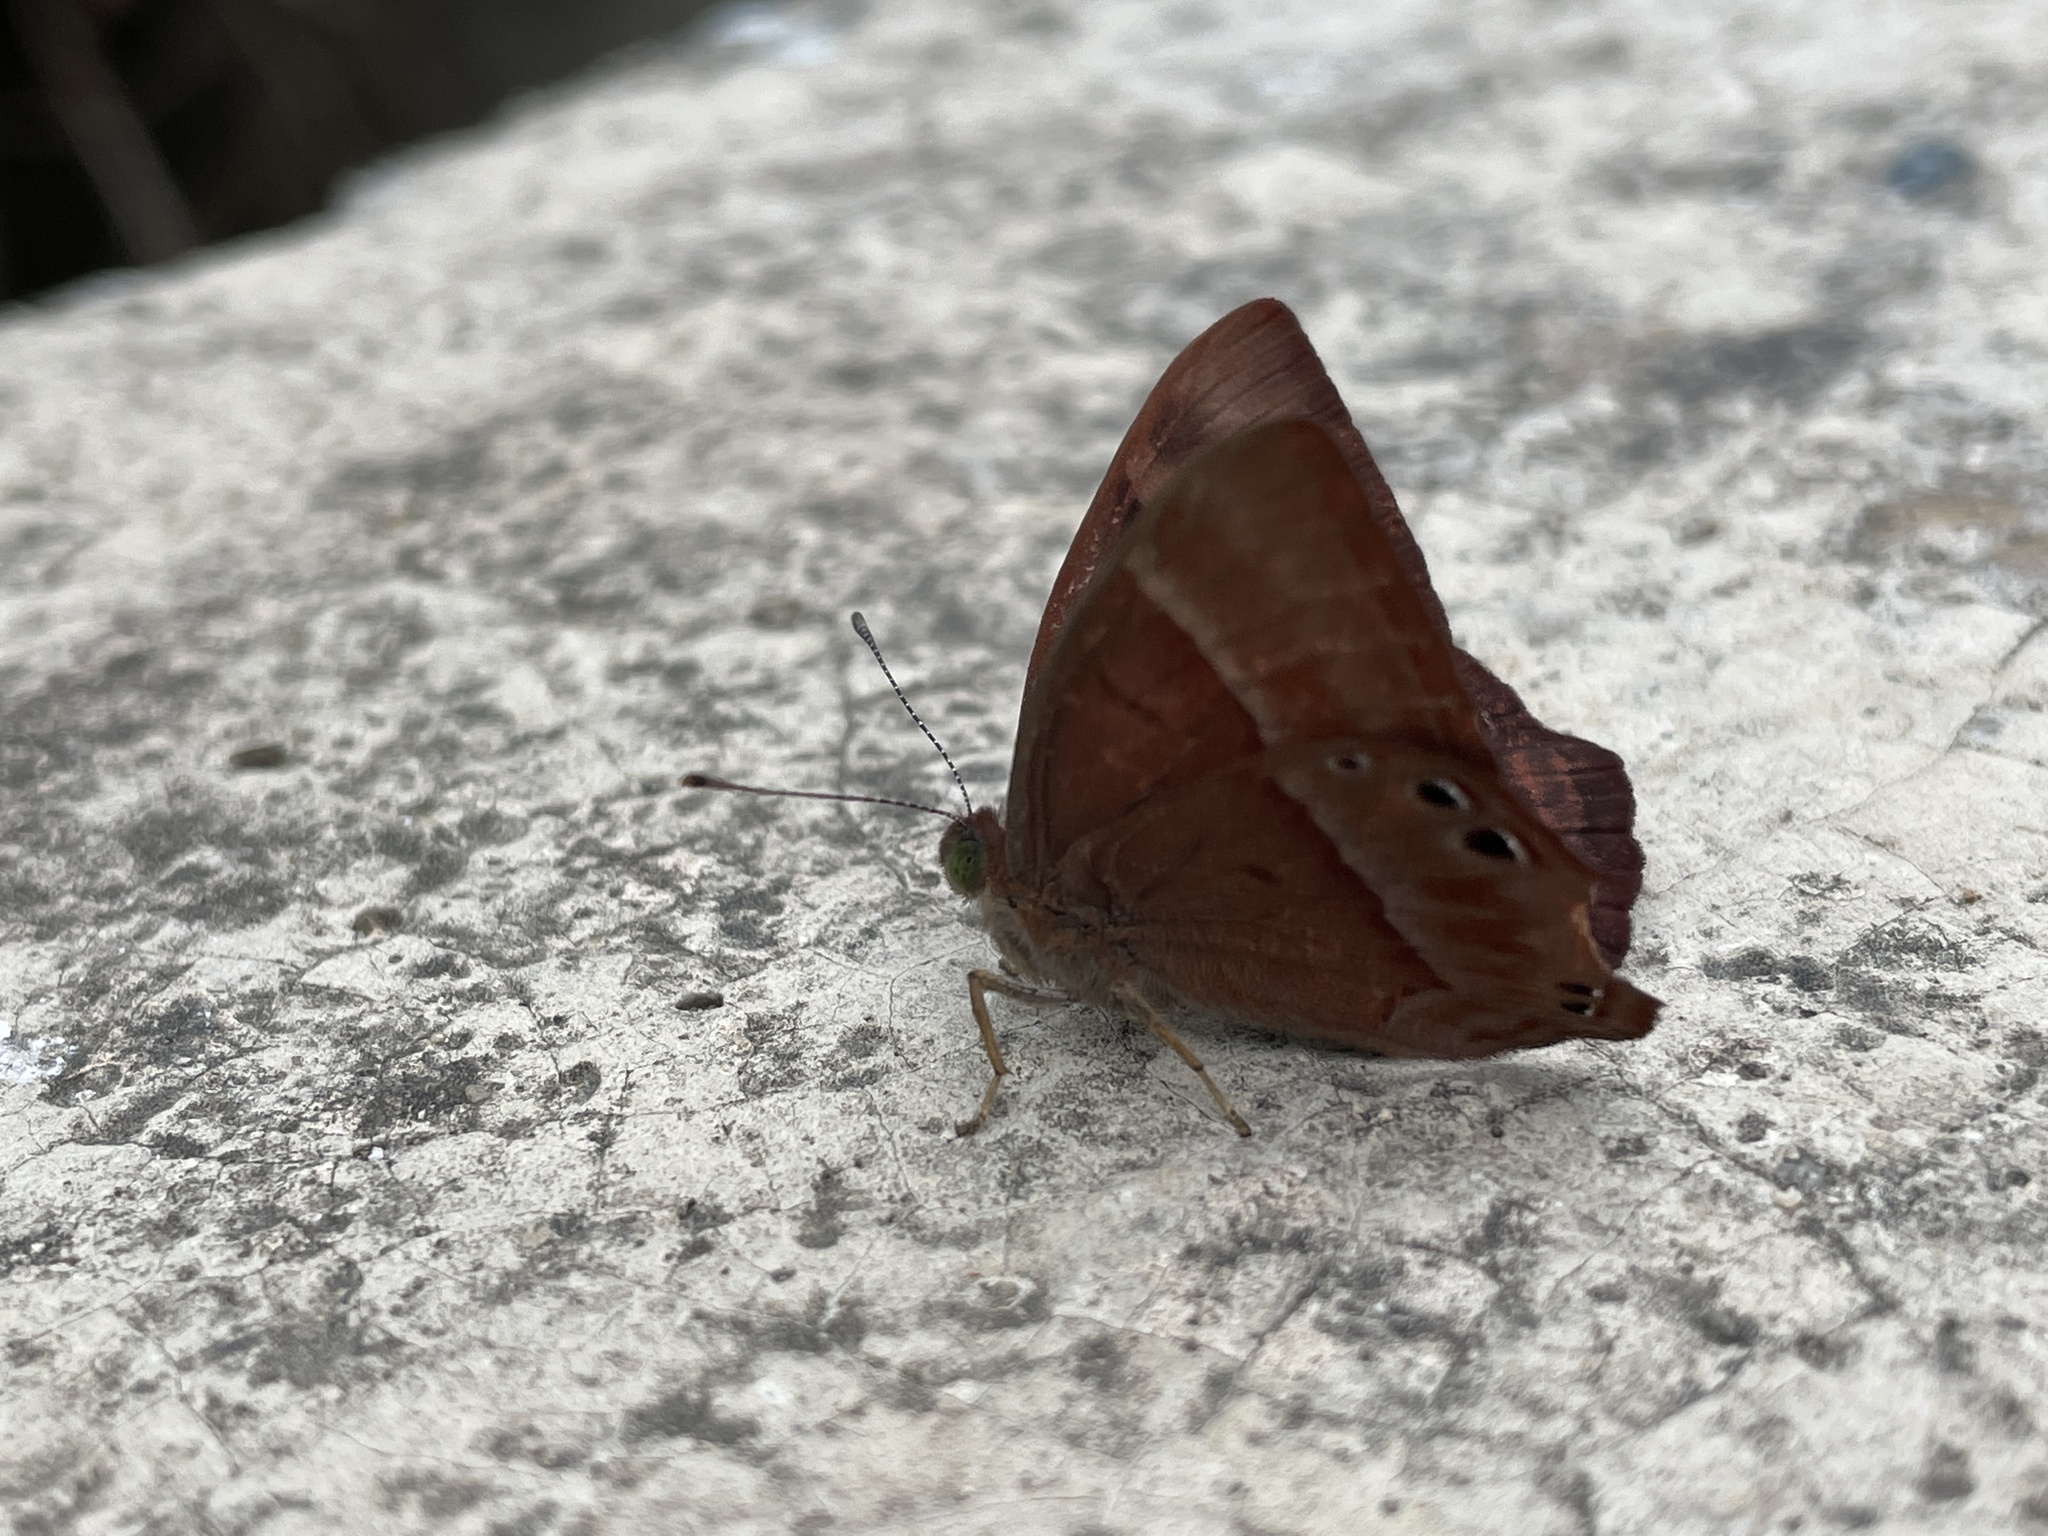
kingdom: Animalia
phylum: Arthropoda
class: Insecta
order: Lepidoptera
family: Lycaenidae
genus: Abisara
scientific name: Abisara echeria
